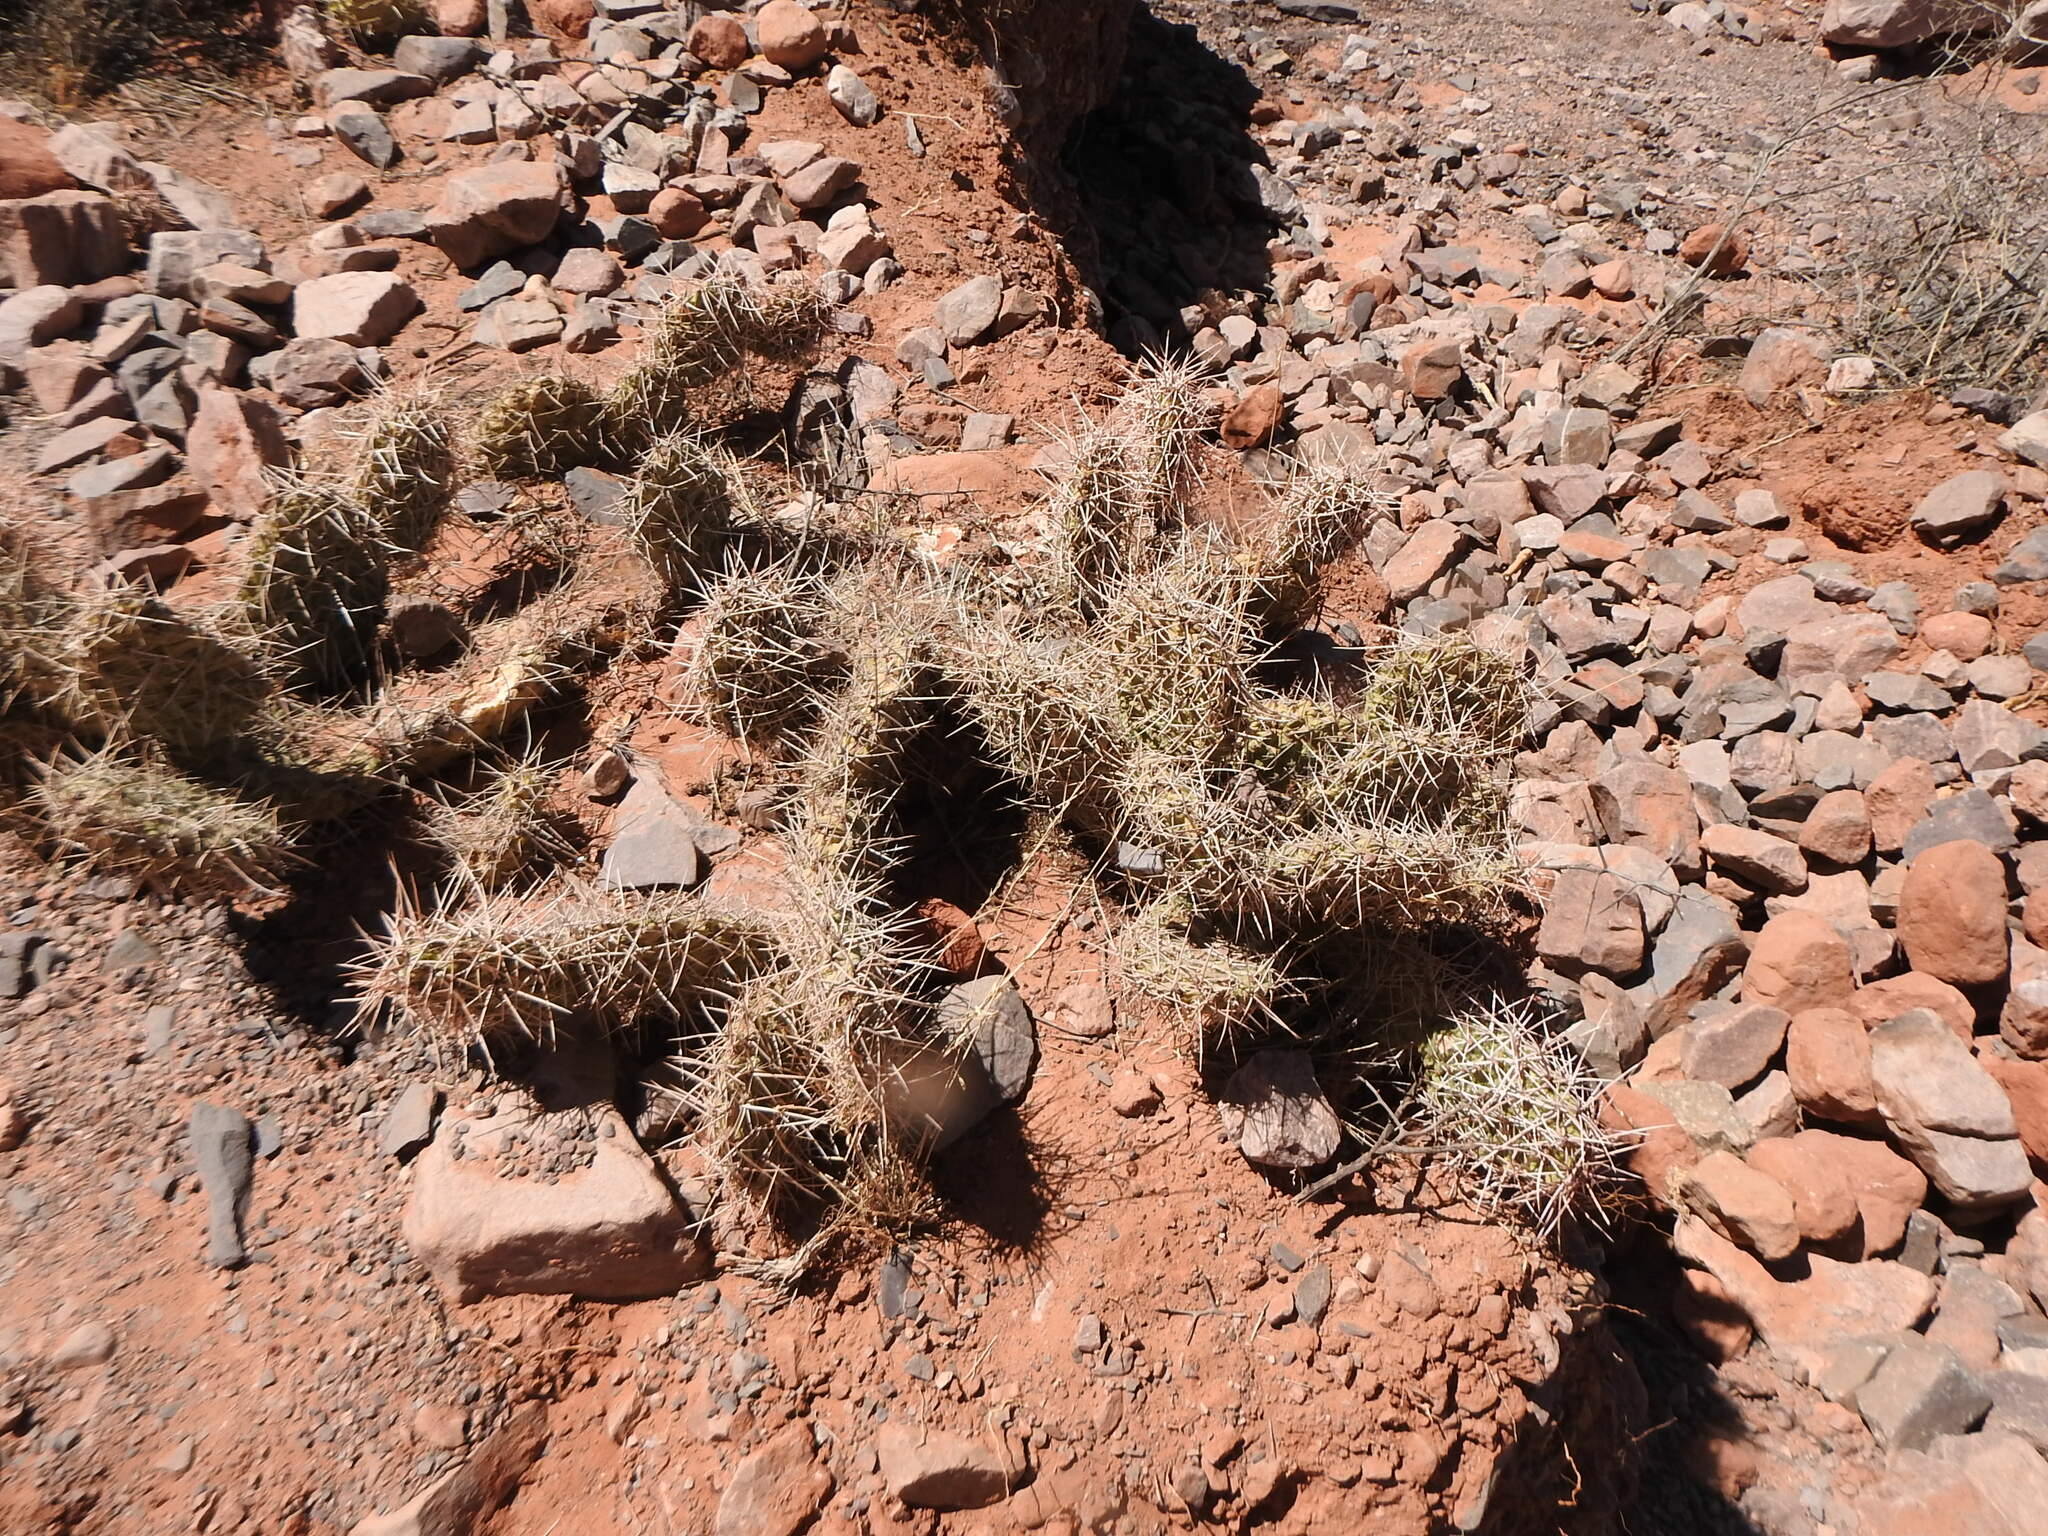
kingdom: Plantae
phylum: Tracheophyta
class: Magnoliopsida
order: Caryophyllales
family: Cactaceae
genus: Opuntia
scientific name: Opuntia sulphurea
